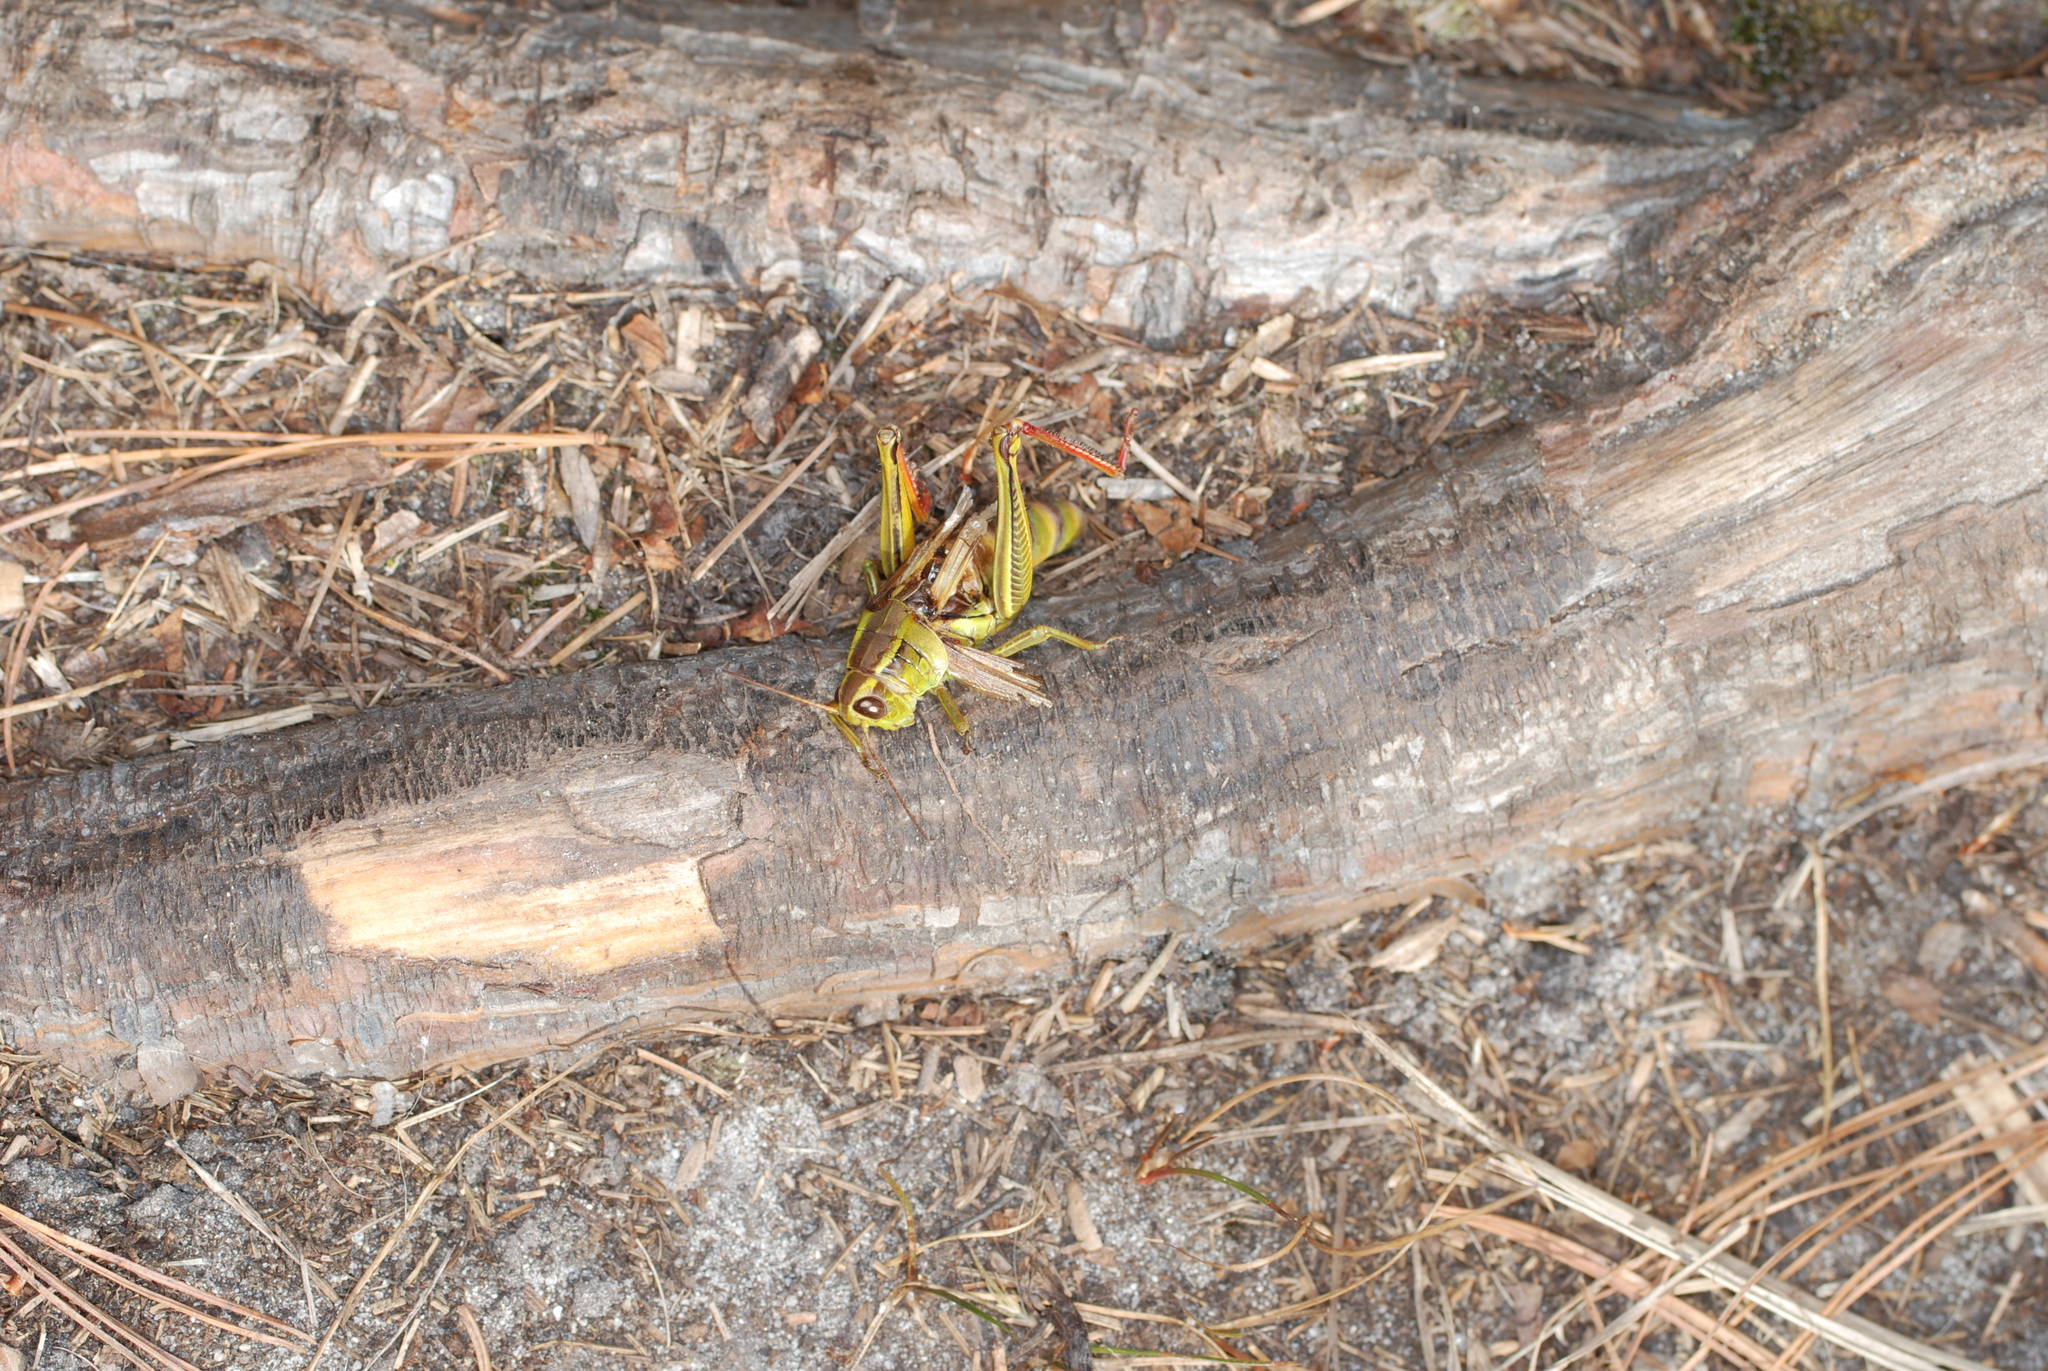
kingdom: Animalia
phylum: Arthropoda
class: Insecta
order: Orthoptera
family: Acrididae
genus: Melanoplus
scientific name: Melanoplus bivittatus
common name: Two-striped grasshopper
